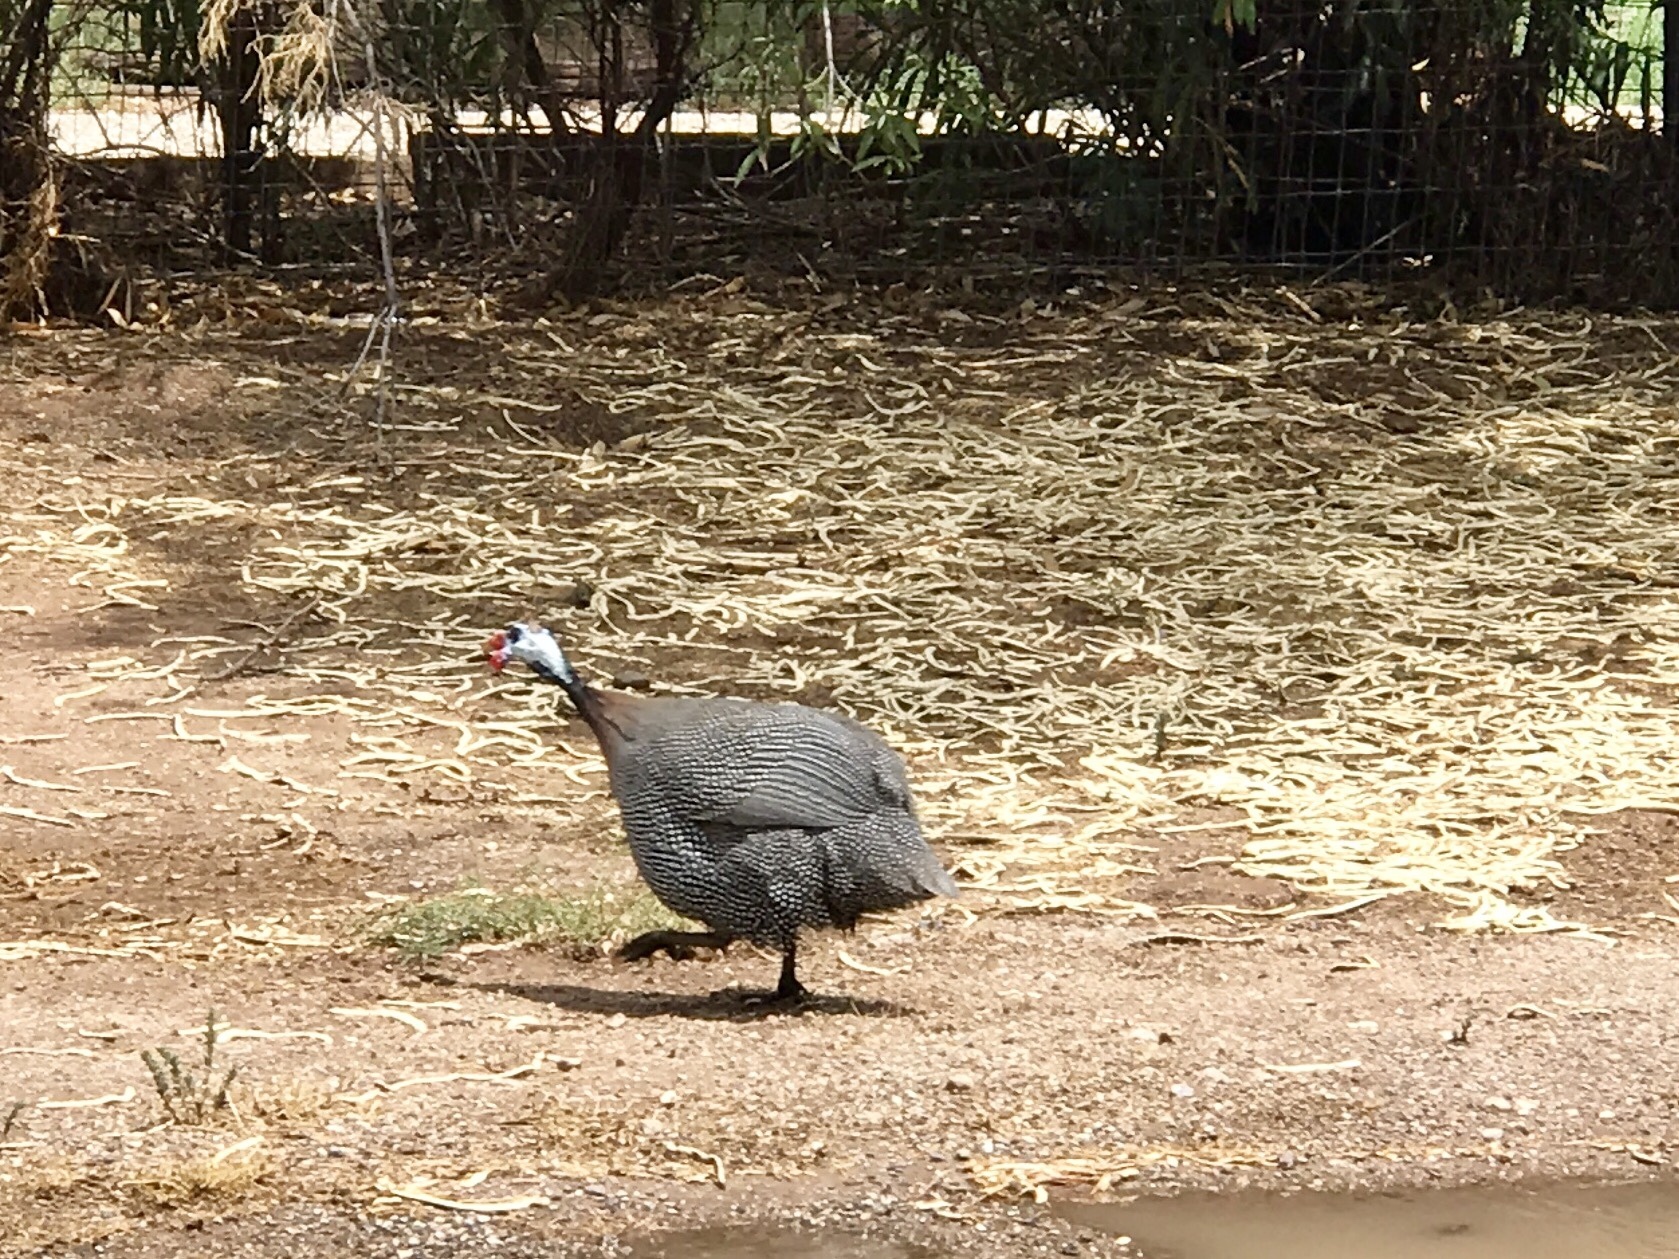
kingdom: Animalia
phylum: Chordata
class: Aves
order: Galliformes
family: Numididae
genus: Numida
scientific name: Numida meleagris
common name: Helmeted guineafowl
